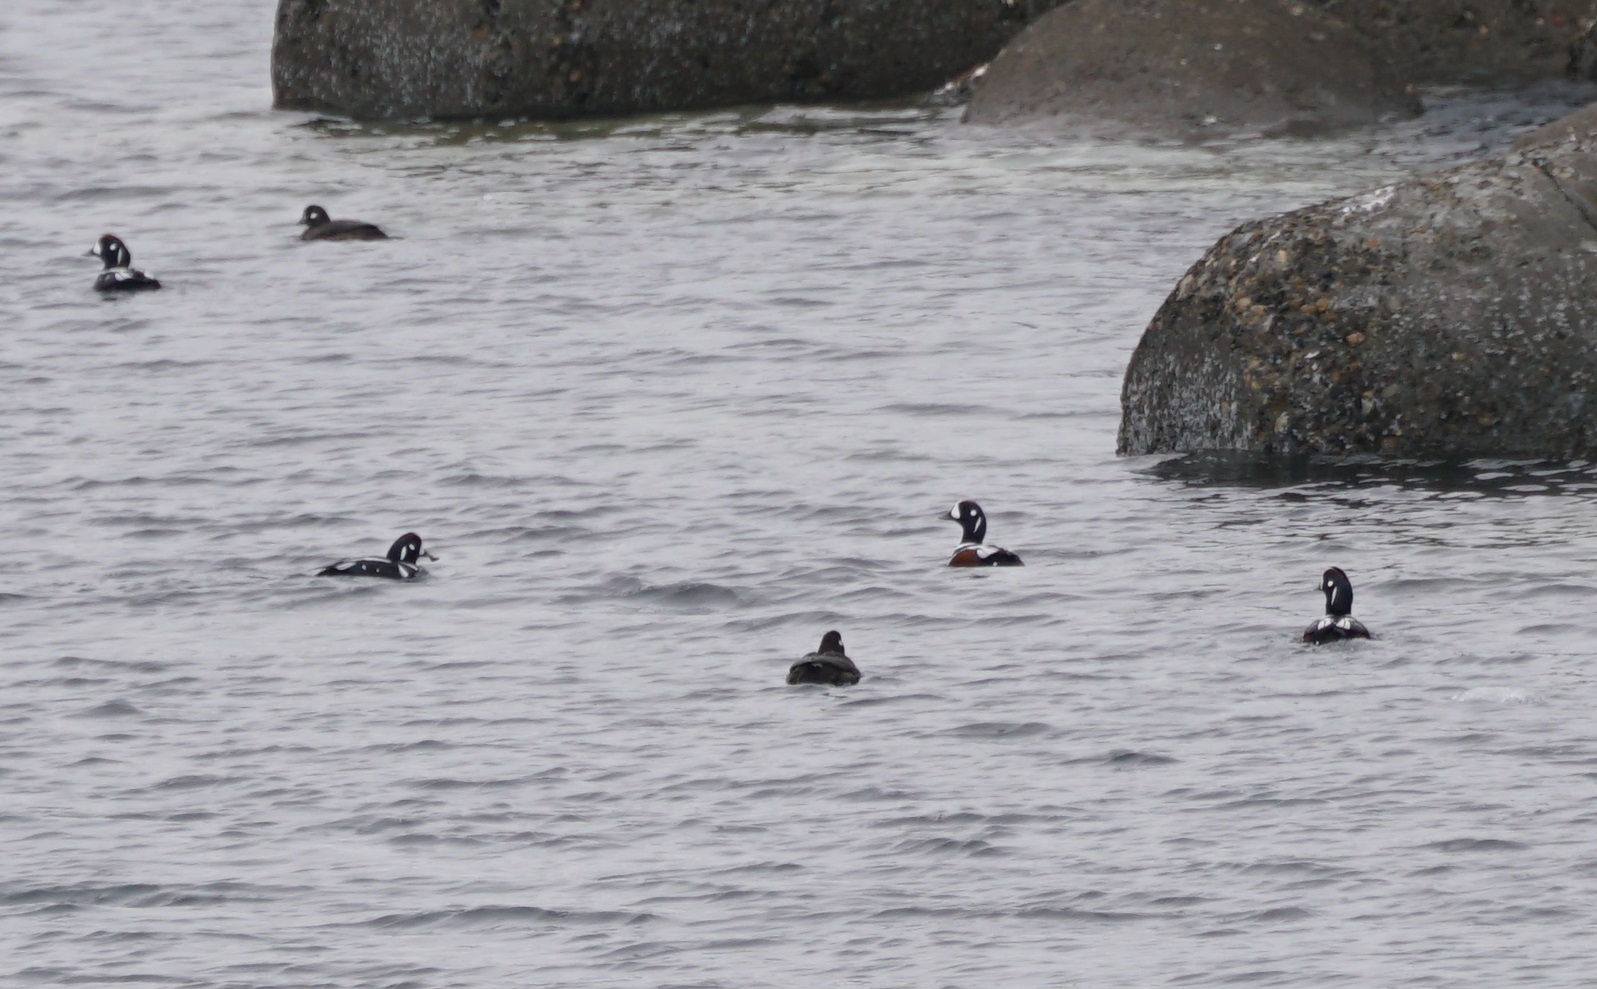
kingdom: Animalia
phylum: Chordata
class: Aves
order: Anseriformes
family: Anatidae
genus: Histrionicus
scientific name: Histrionicus histrionicus
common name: Harlequin duck
